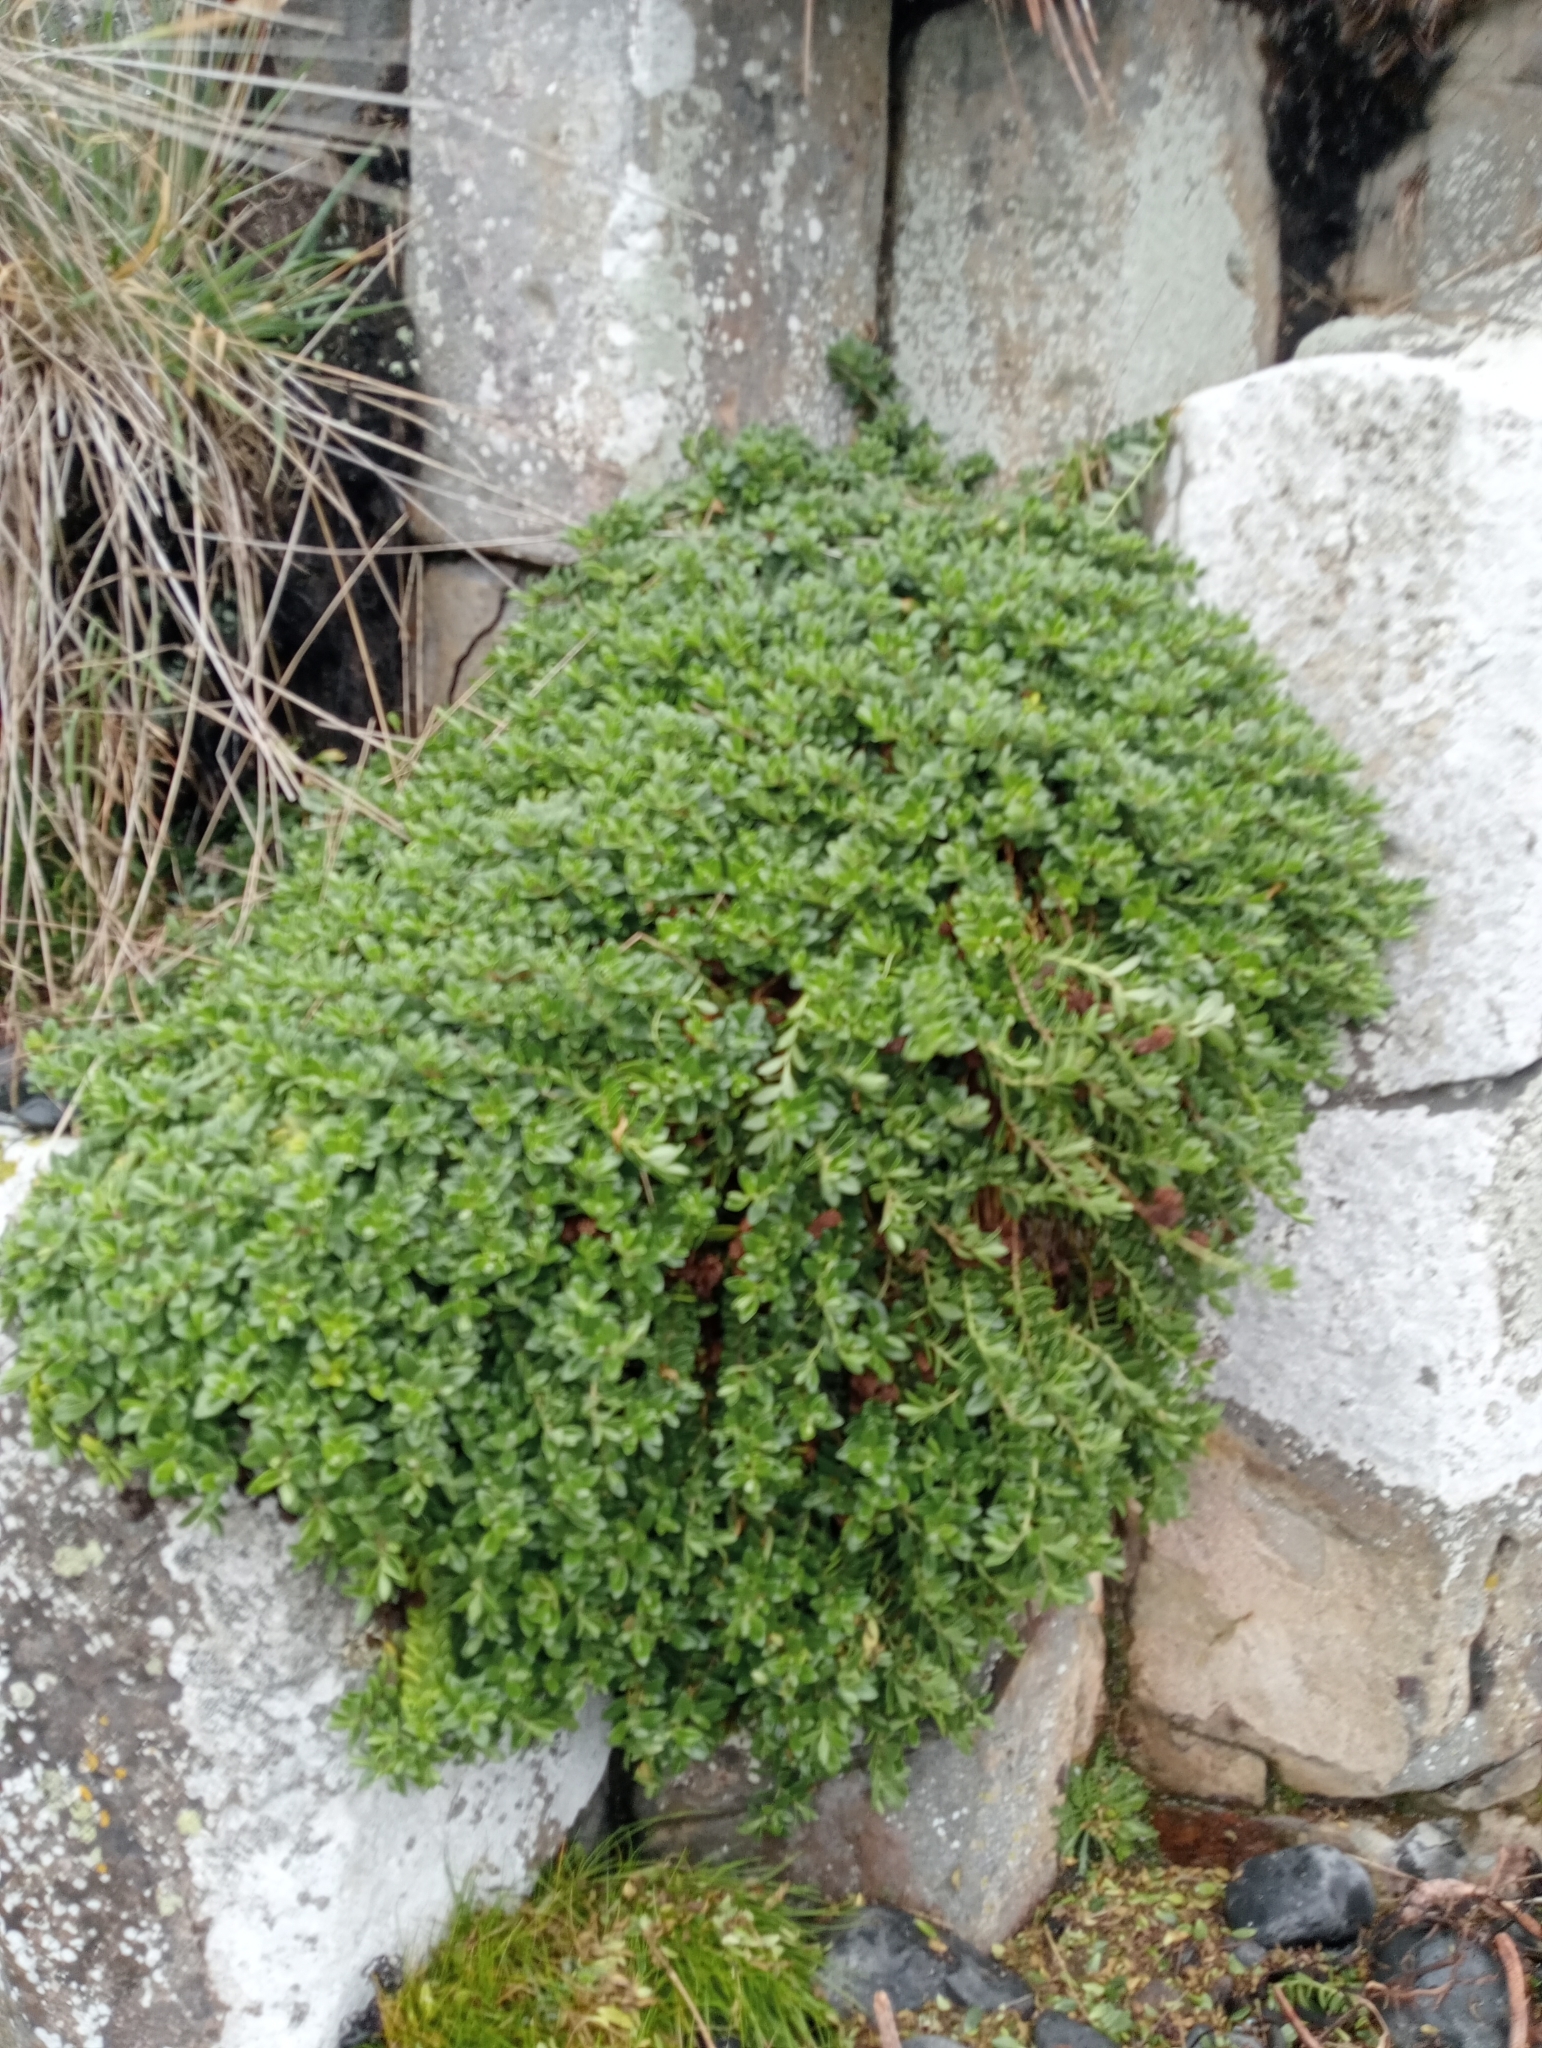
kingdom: Plantae
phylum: Tracheophyta
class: Magnoliopsida
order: Lamiales
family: Plantaginaceae
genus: Veronica
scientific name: Veronica chathamica
